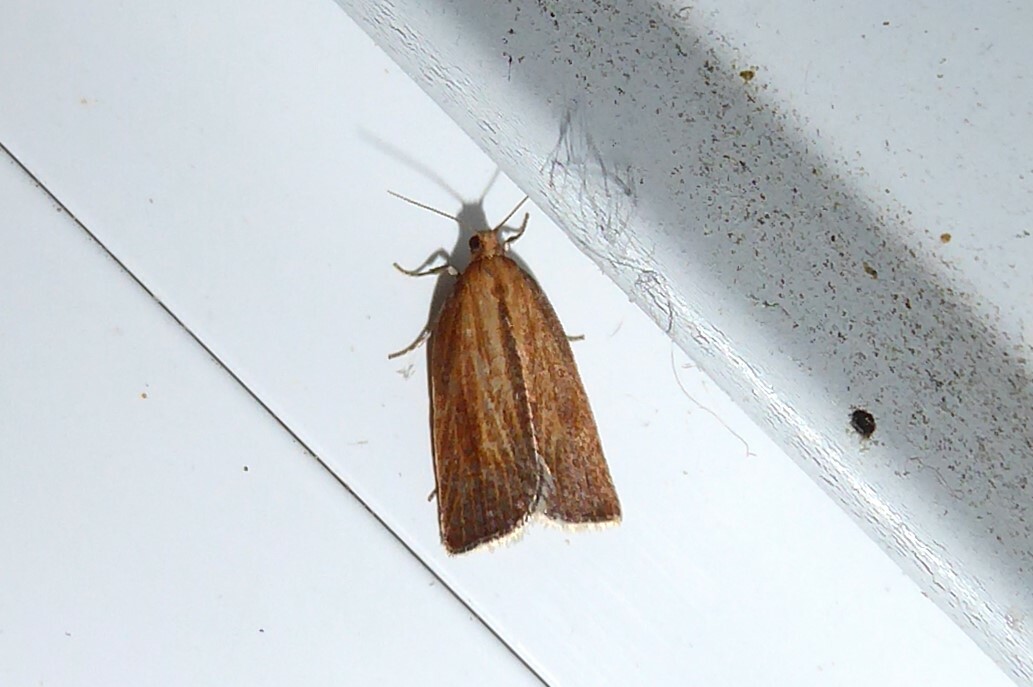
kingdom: Animalia
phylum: Arthropoda
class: Insecta
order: Lepidoptera
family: Tortricidae
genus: Catamacta
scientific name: Catamacta lotinana
